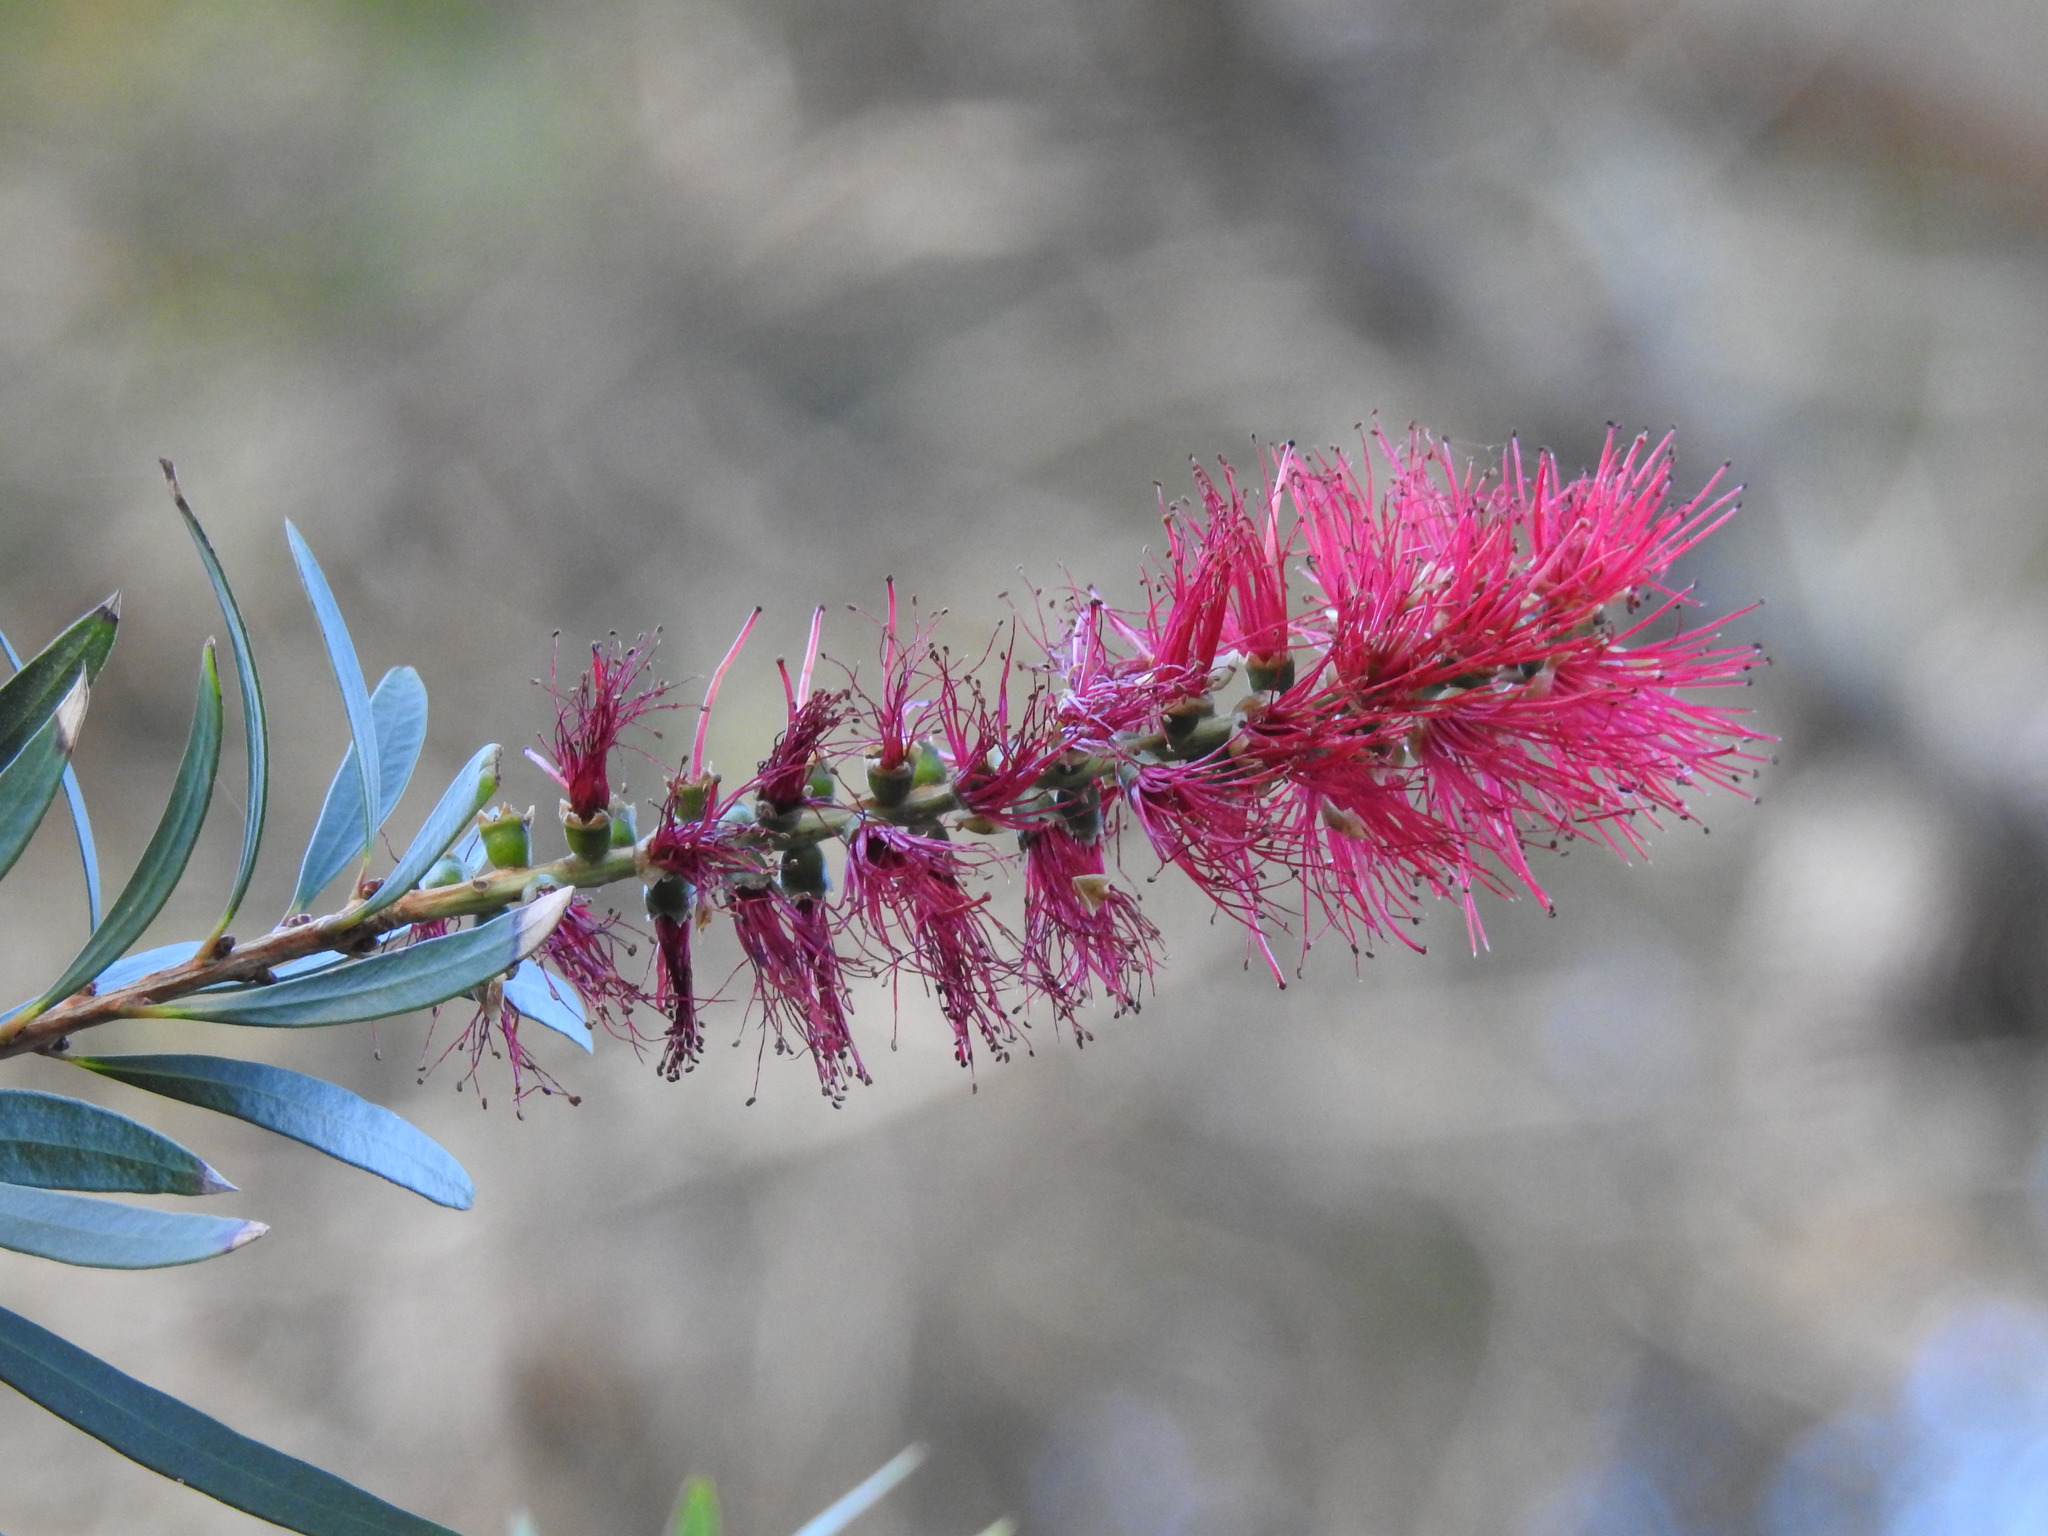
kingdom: Plantae
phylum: Tracheophyta
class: Magnoliopsida
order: Myrtales
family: Myrtaceae
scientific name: Myrtaceae
